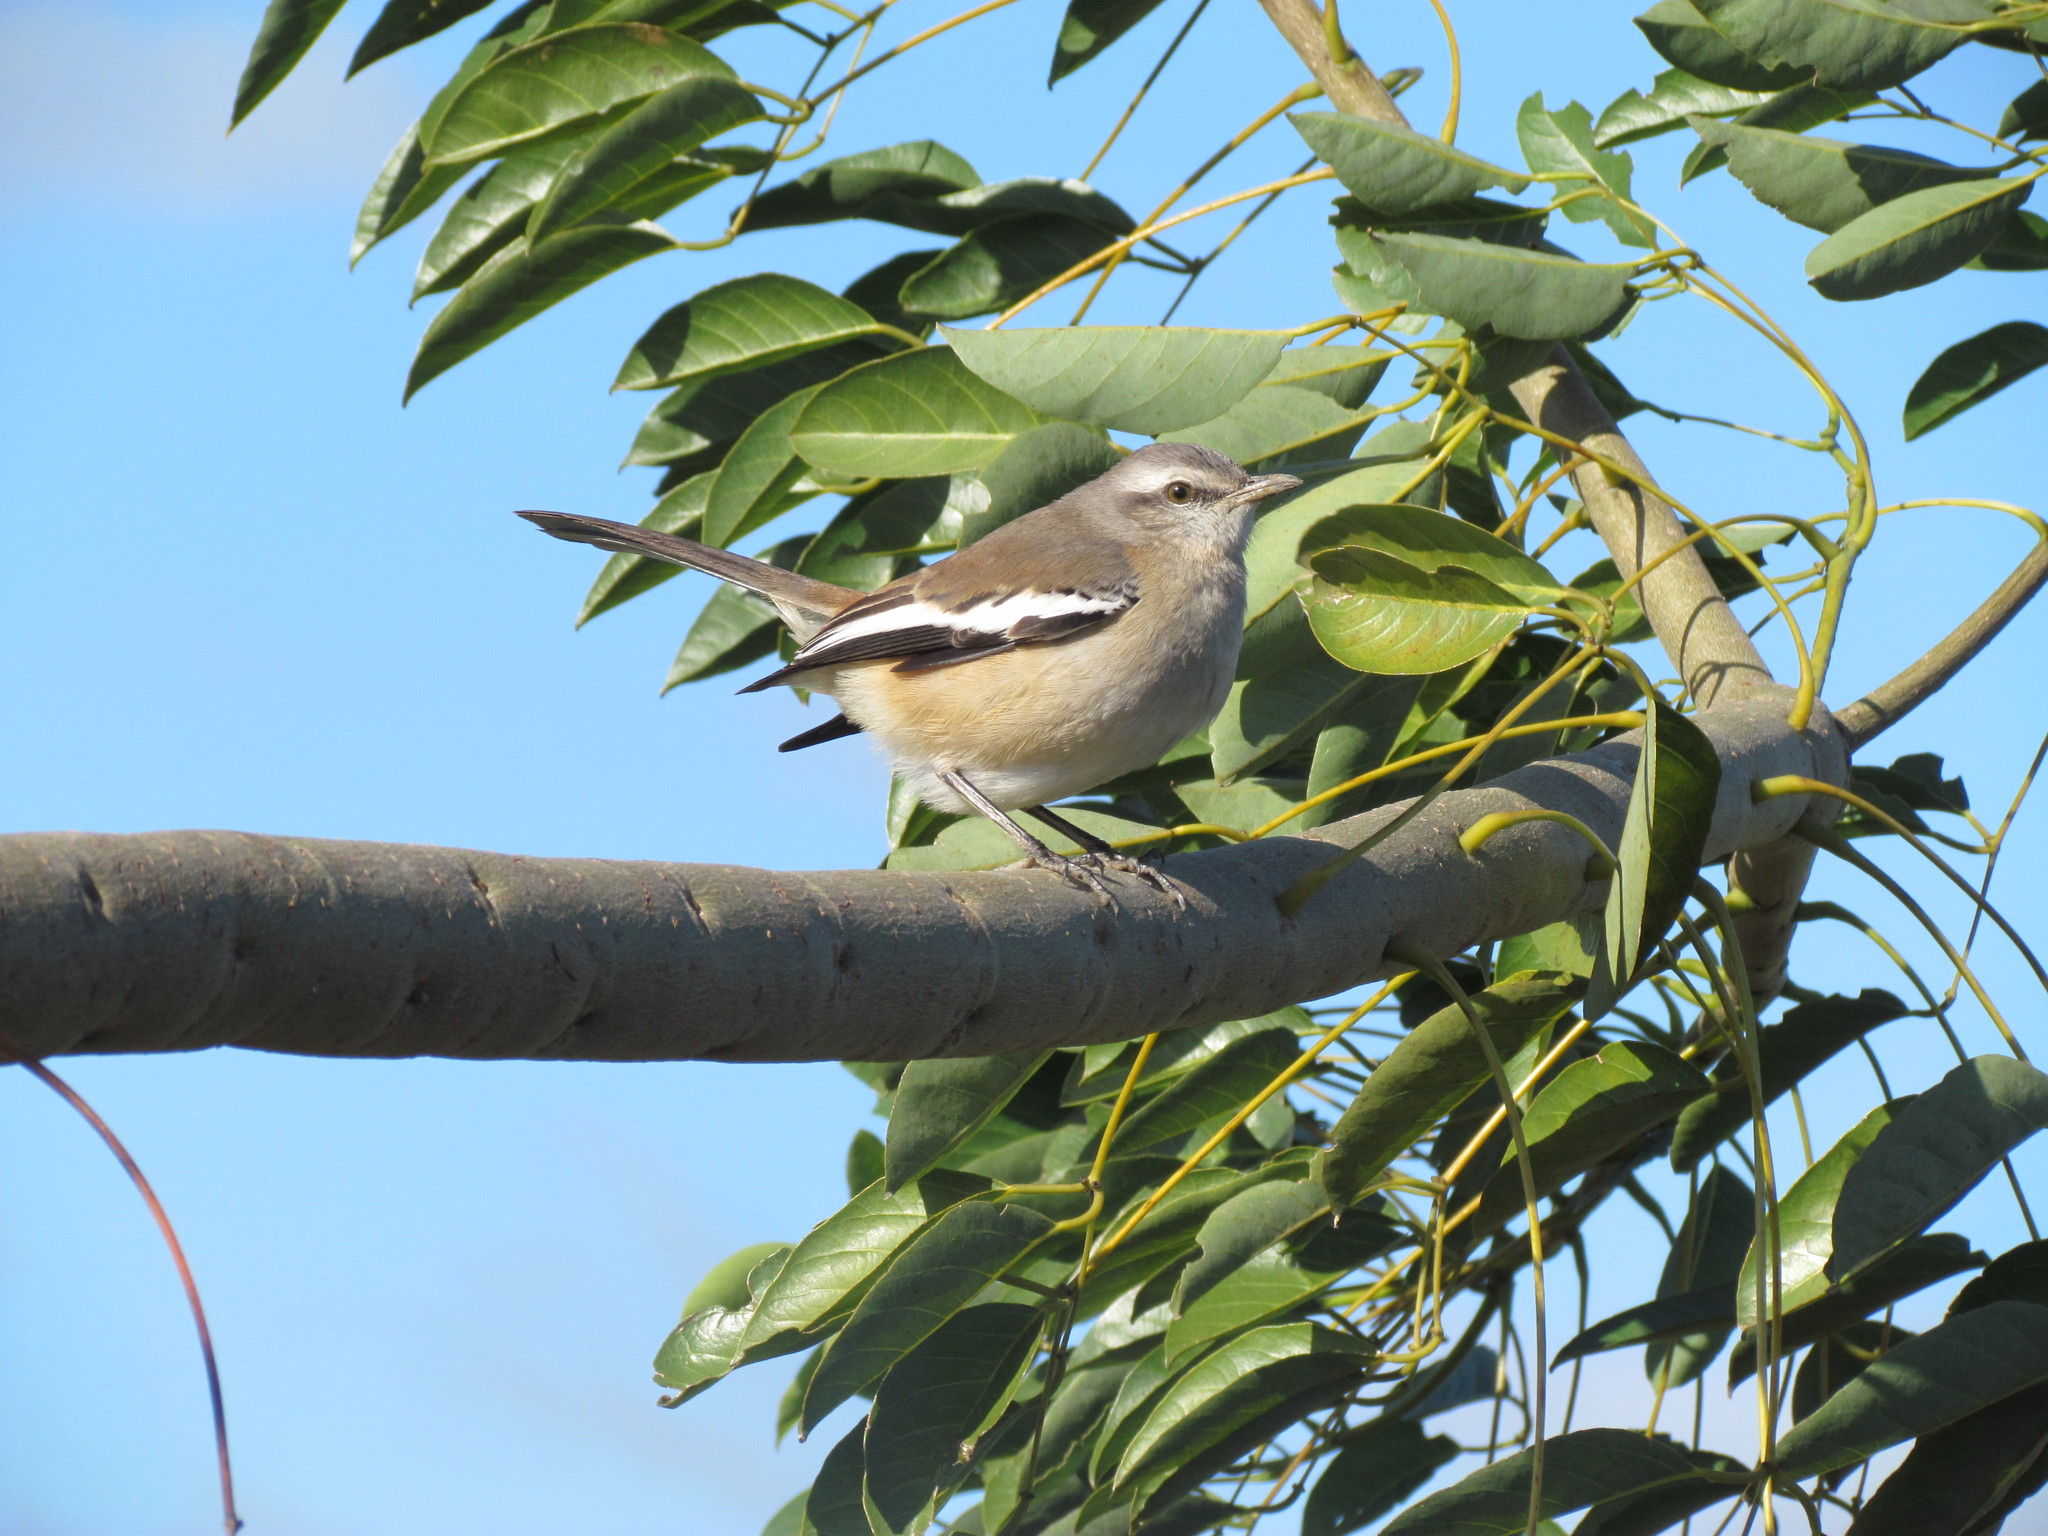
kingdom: Animalia
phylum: Chordata
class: Aves
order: Passeriformes
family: Mimidae
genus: Mimus
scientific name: Mimus triurus
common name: White-banded mockingbird
